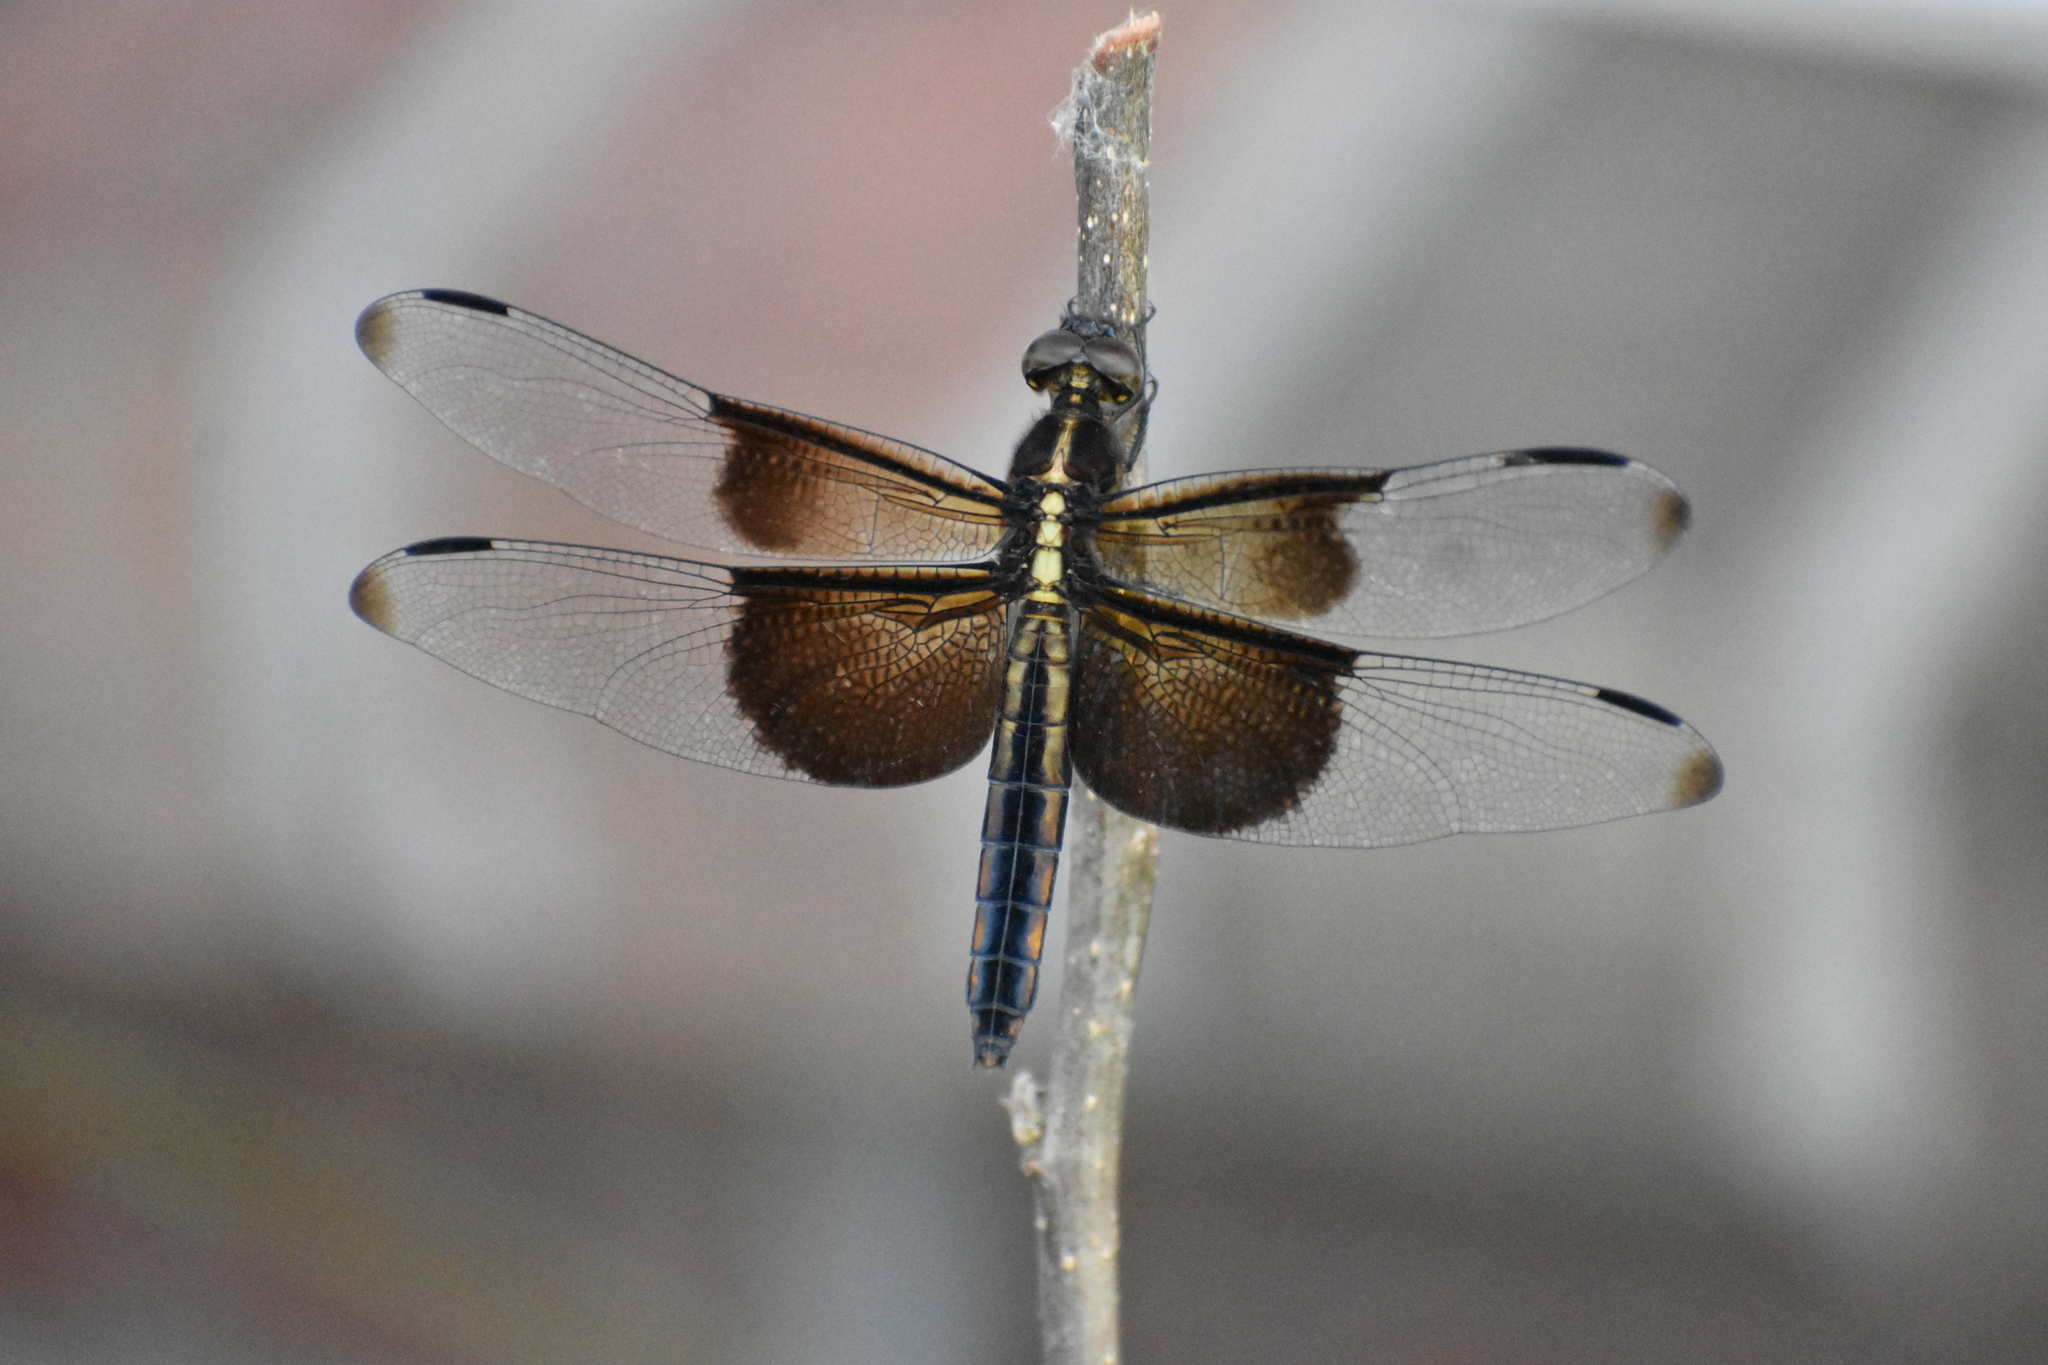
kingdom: Animalia
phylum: Arthropoda
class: Insecta
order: Odonata
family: Libellulidae
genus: Libellula
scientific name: Libellula luctuosa
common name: Widow skimmer
